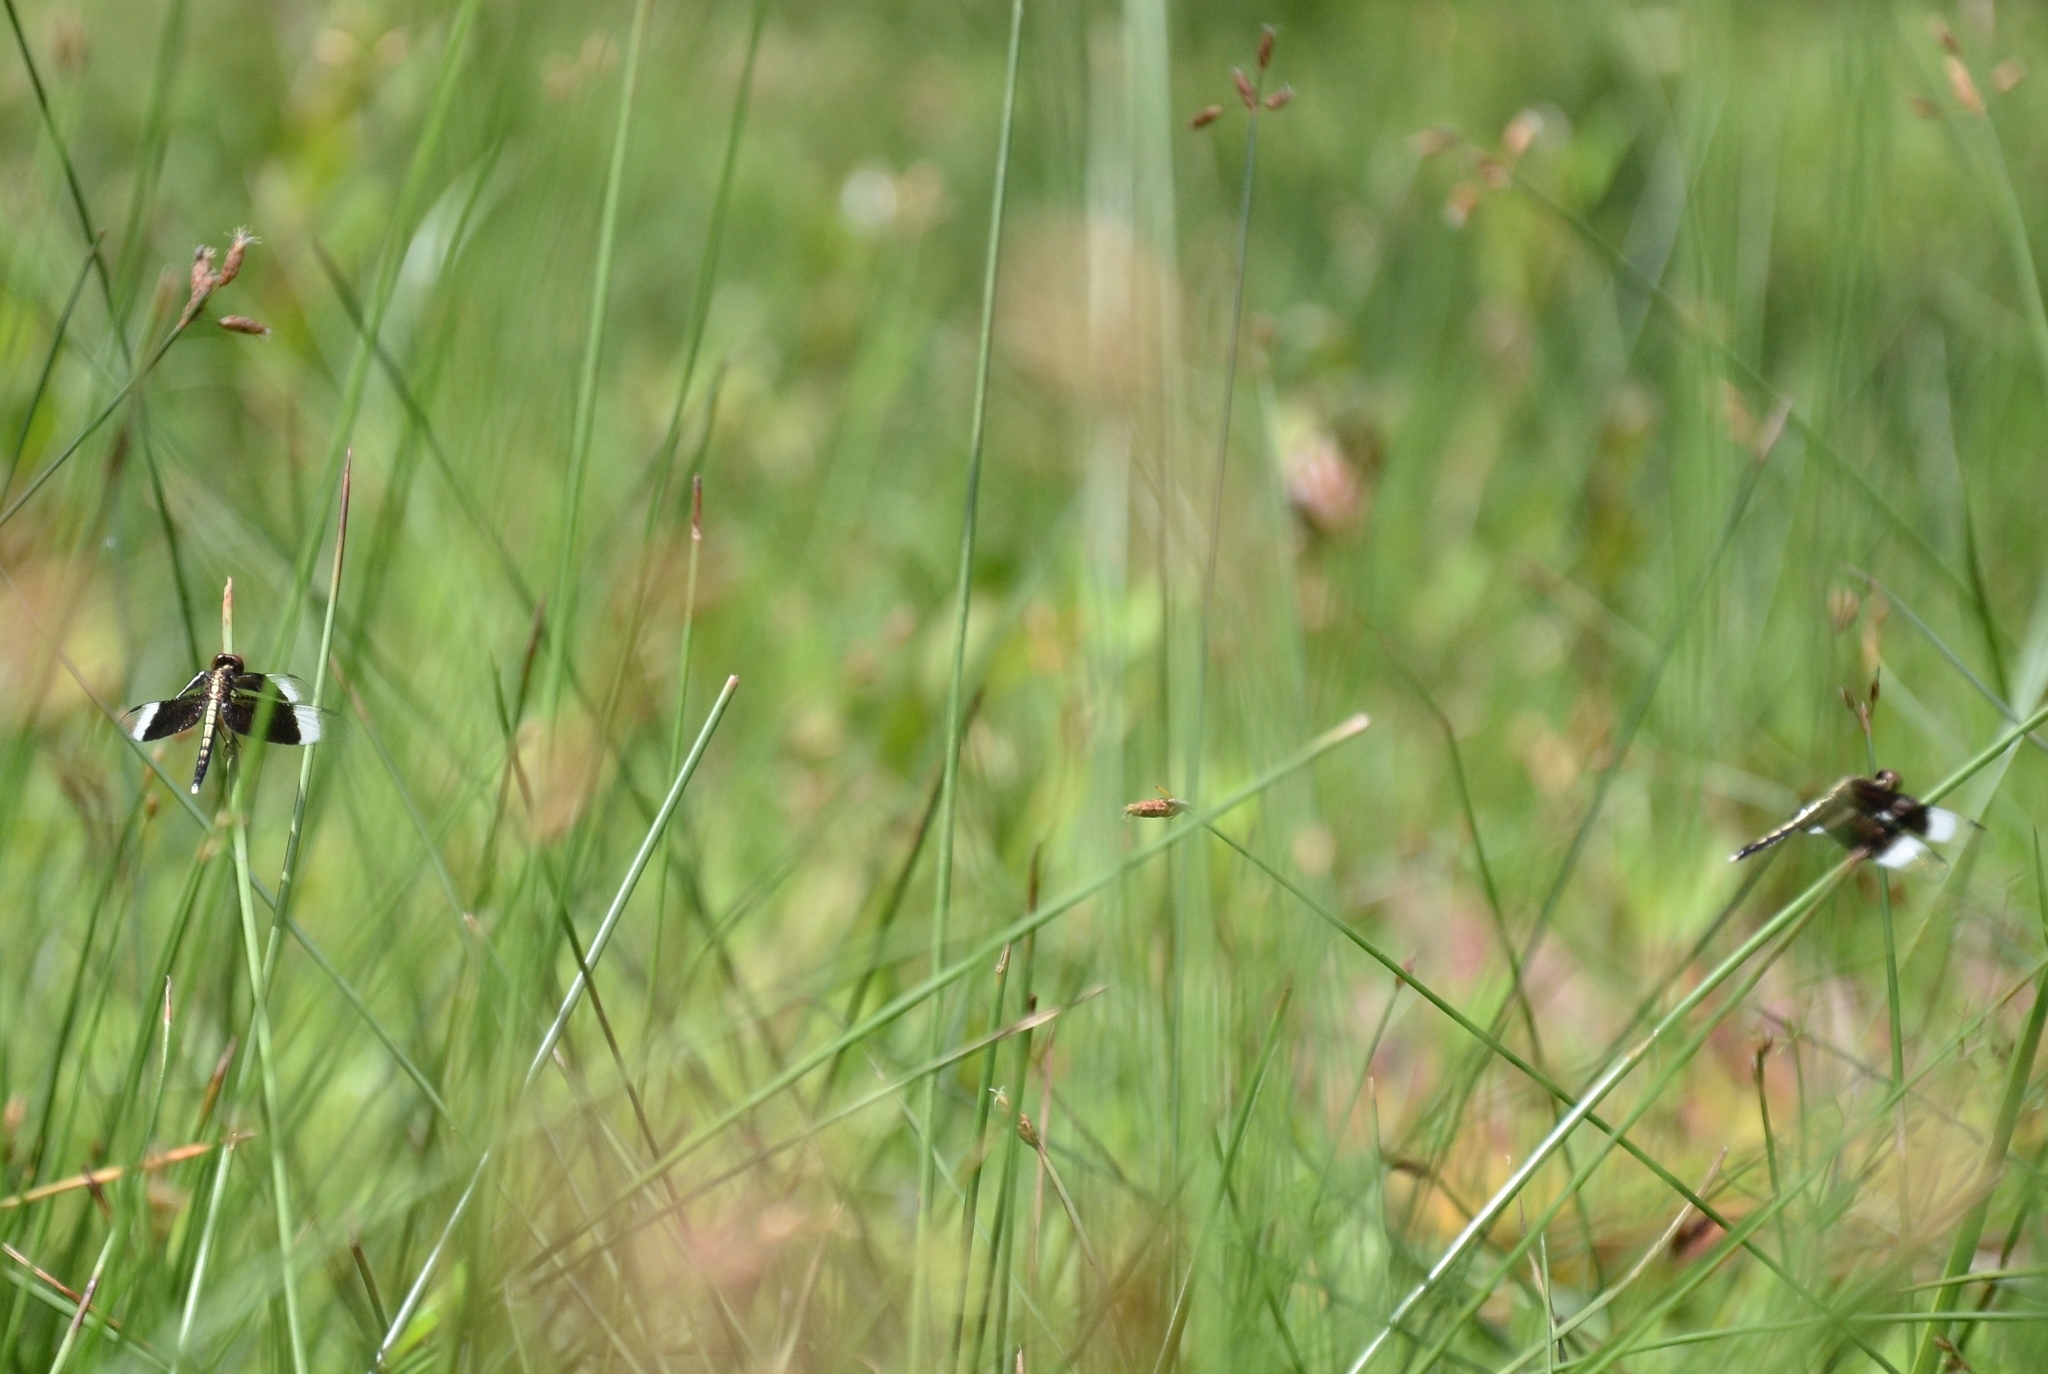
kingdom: Animalia
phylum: Arthropoda
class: Insecta
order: Odonata
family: Libellulidae
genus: Neurothemis
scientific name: Neurothemis tullia
